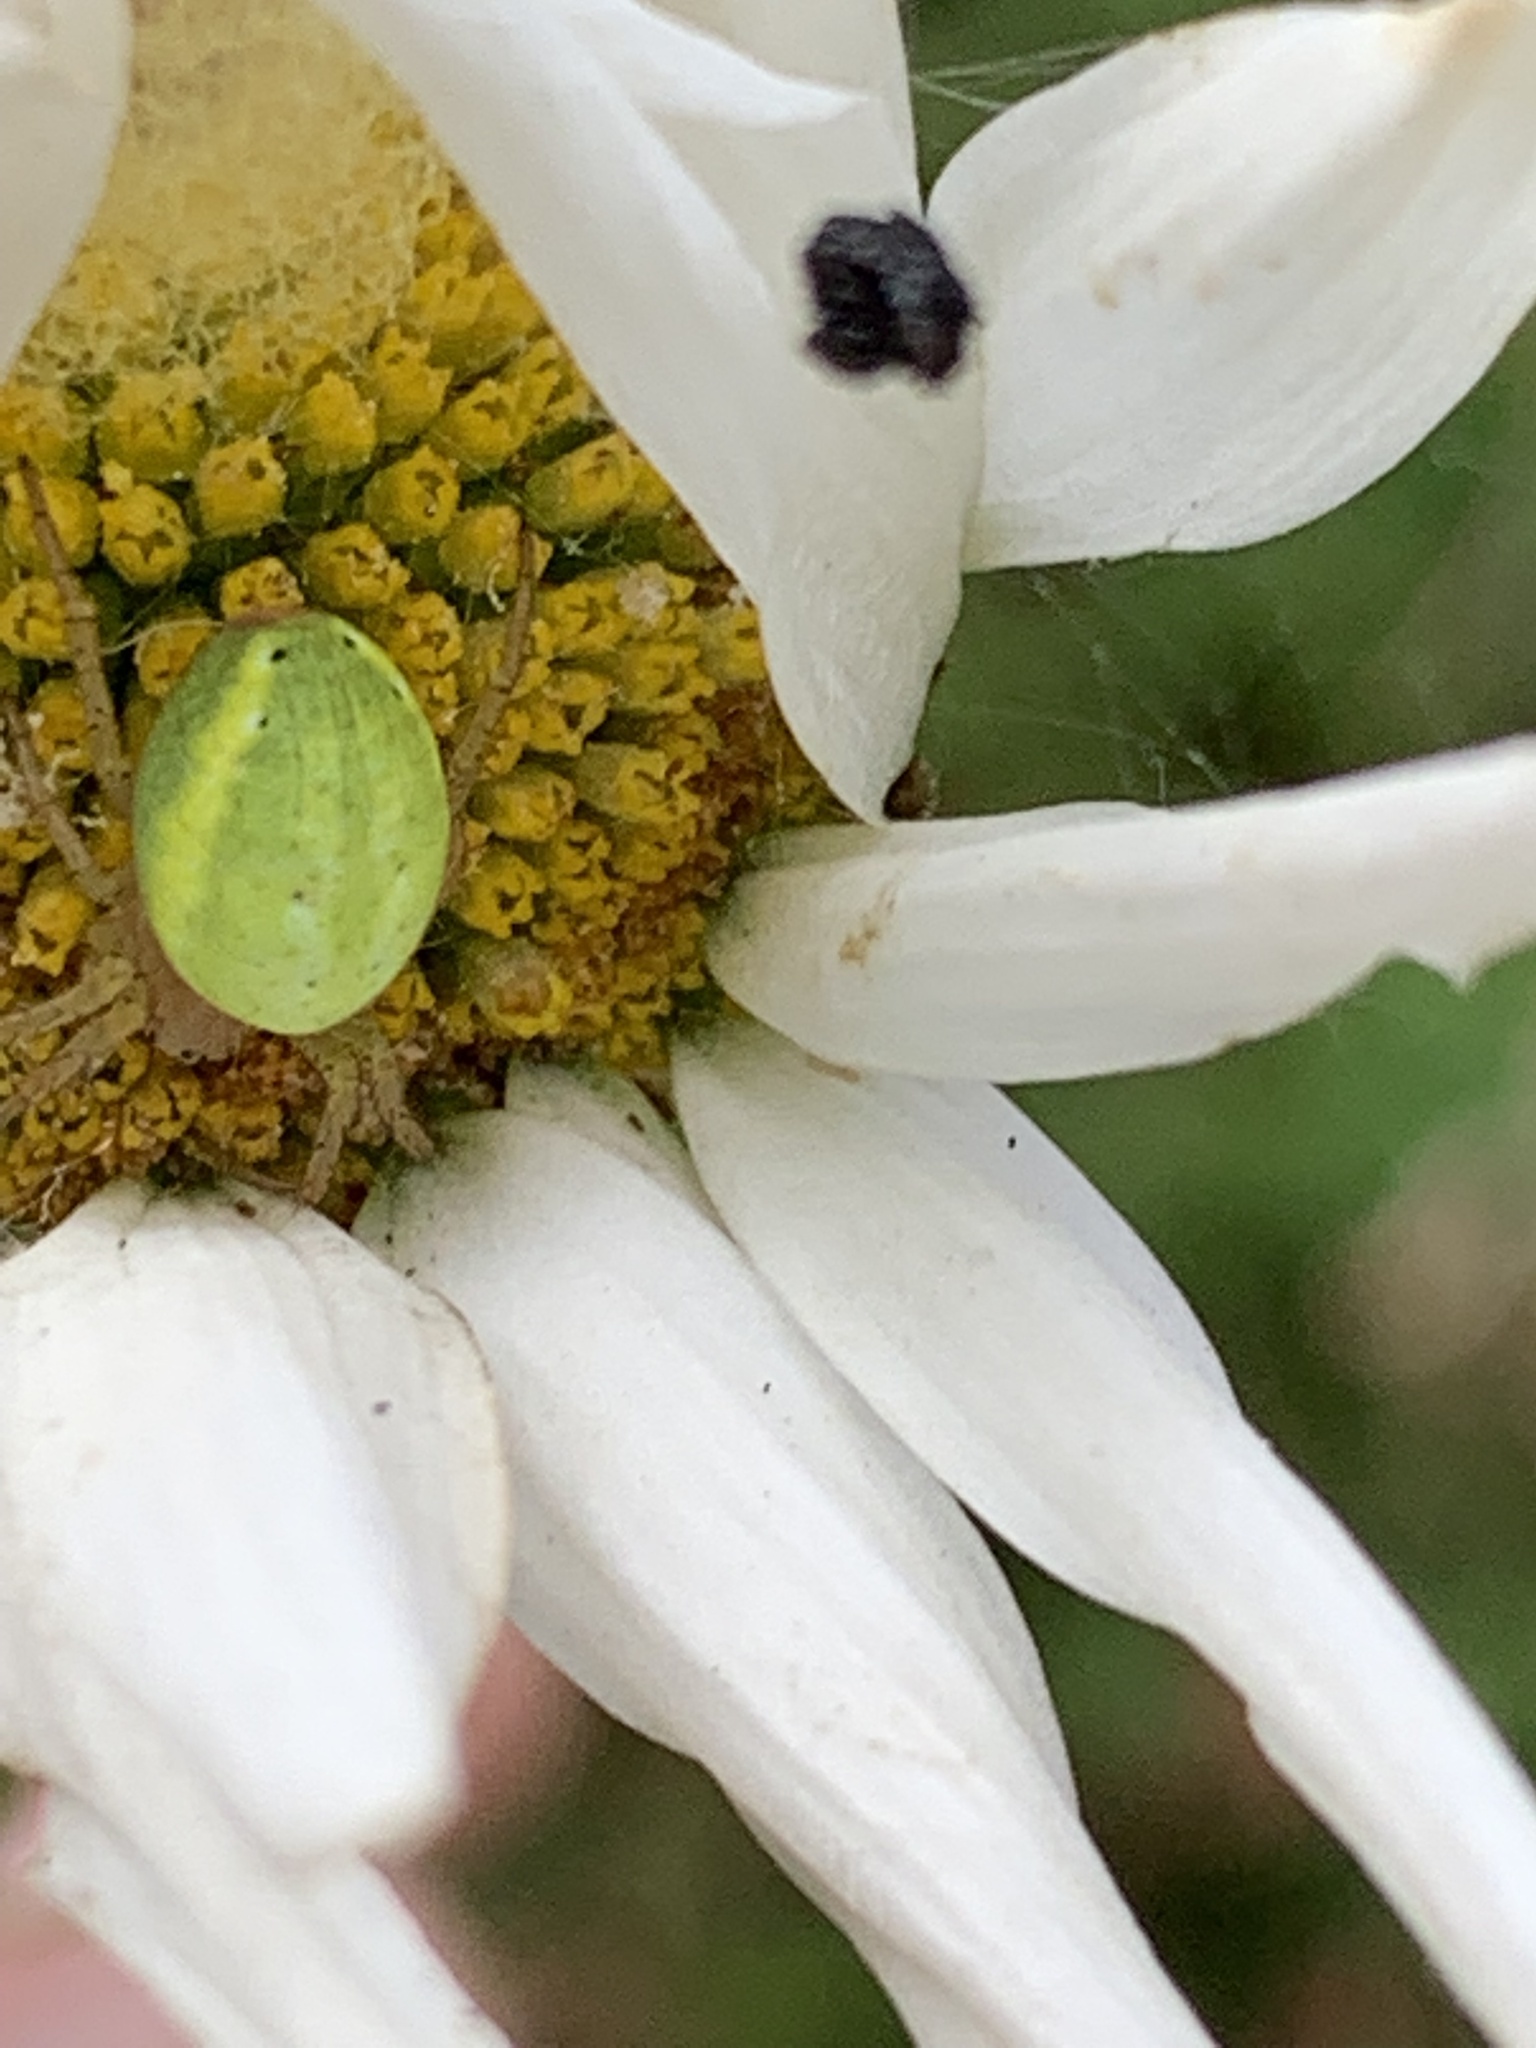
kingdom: Animalia
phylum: Arthropoda
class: Arachnida
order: Araneae
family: Araneidae
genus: Araniella
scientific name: Araniella cucurbitina
